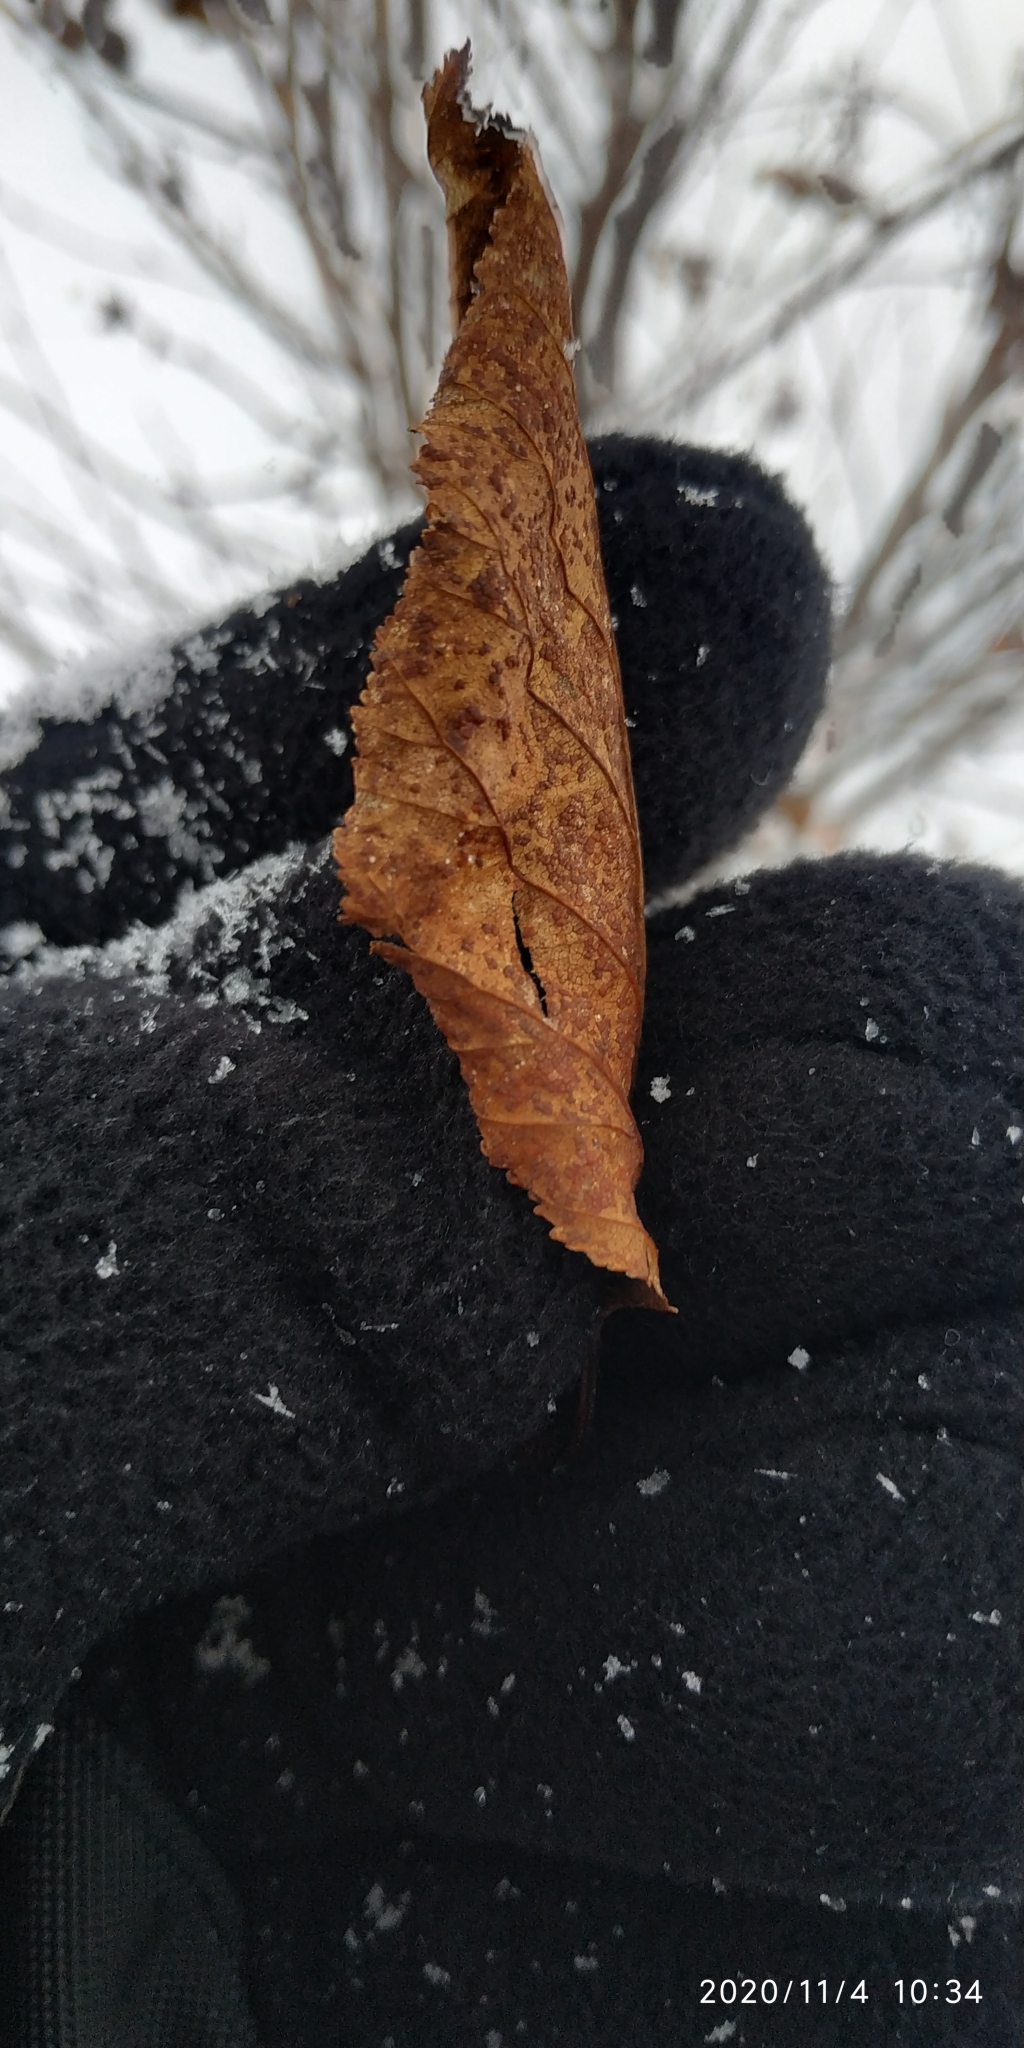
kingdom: Plantae
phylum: Tracheophyta
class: Magnoliopsida
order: Fagales
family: Betulaceae
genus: Alnus
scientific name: Alnus alnobetula
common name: Green alder
